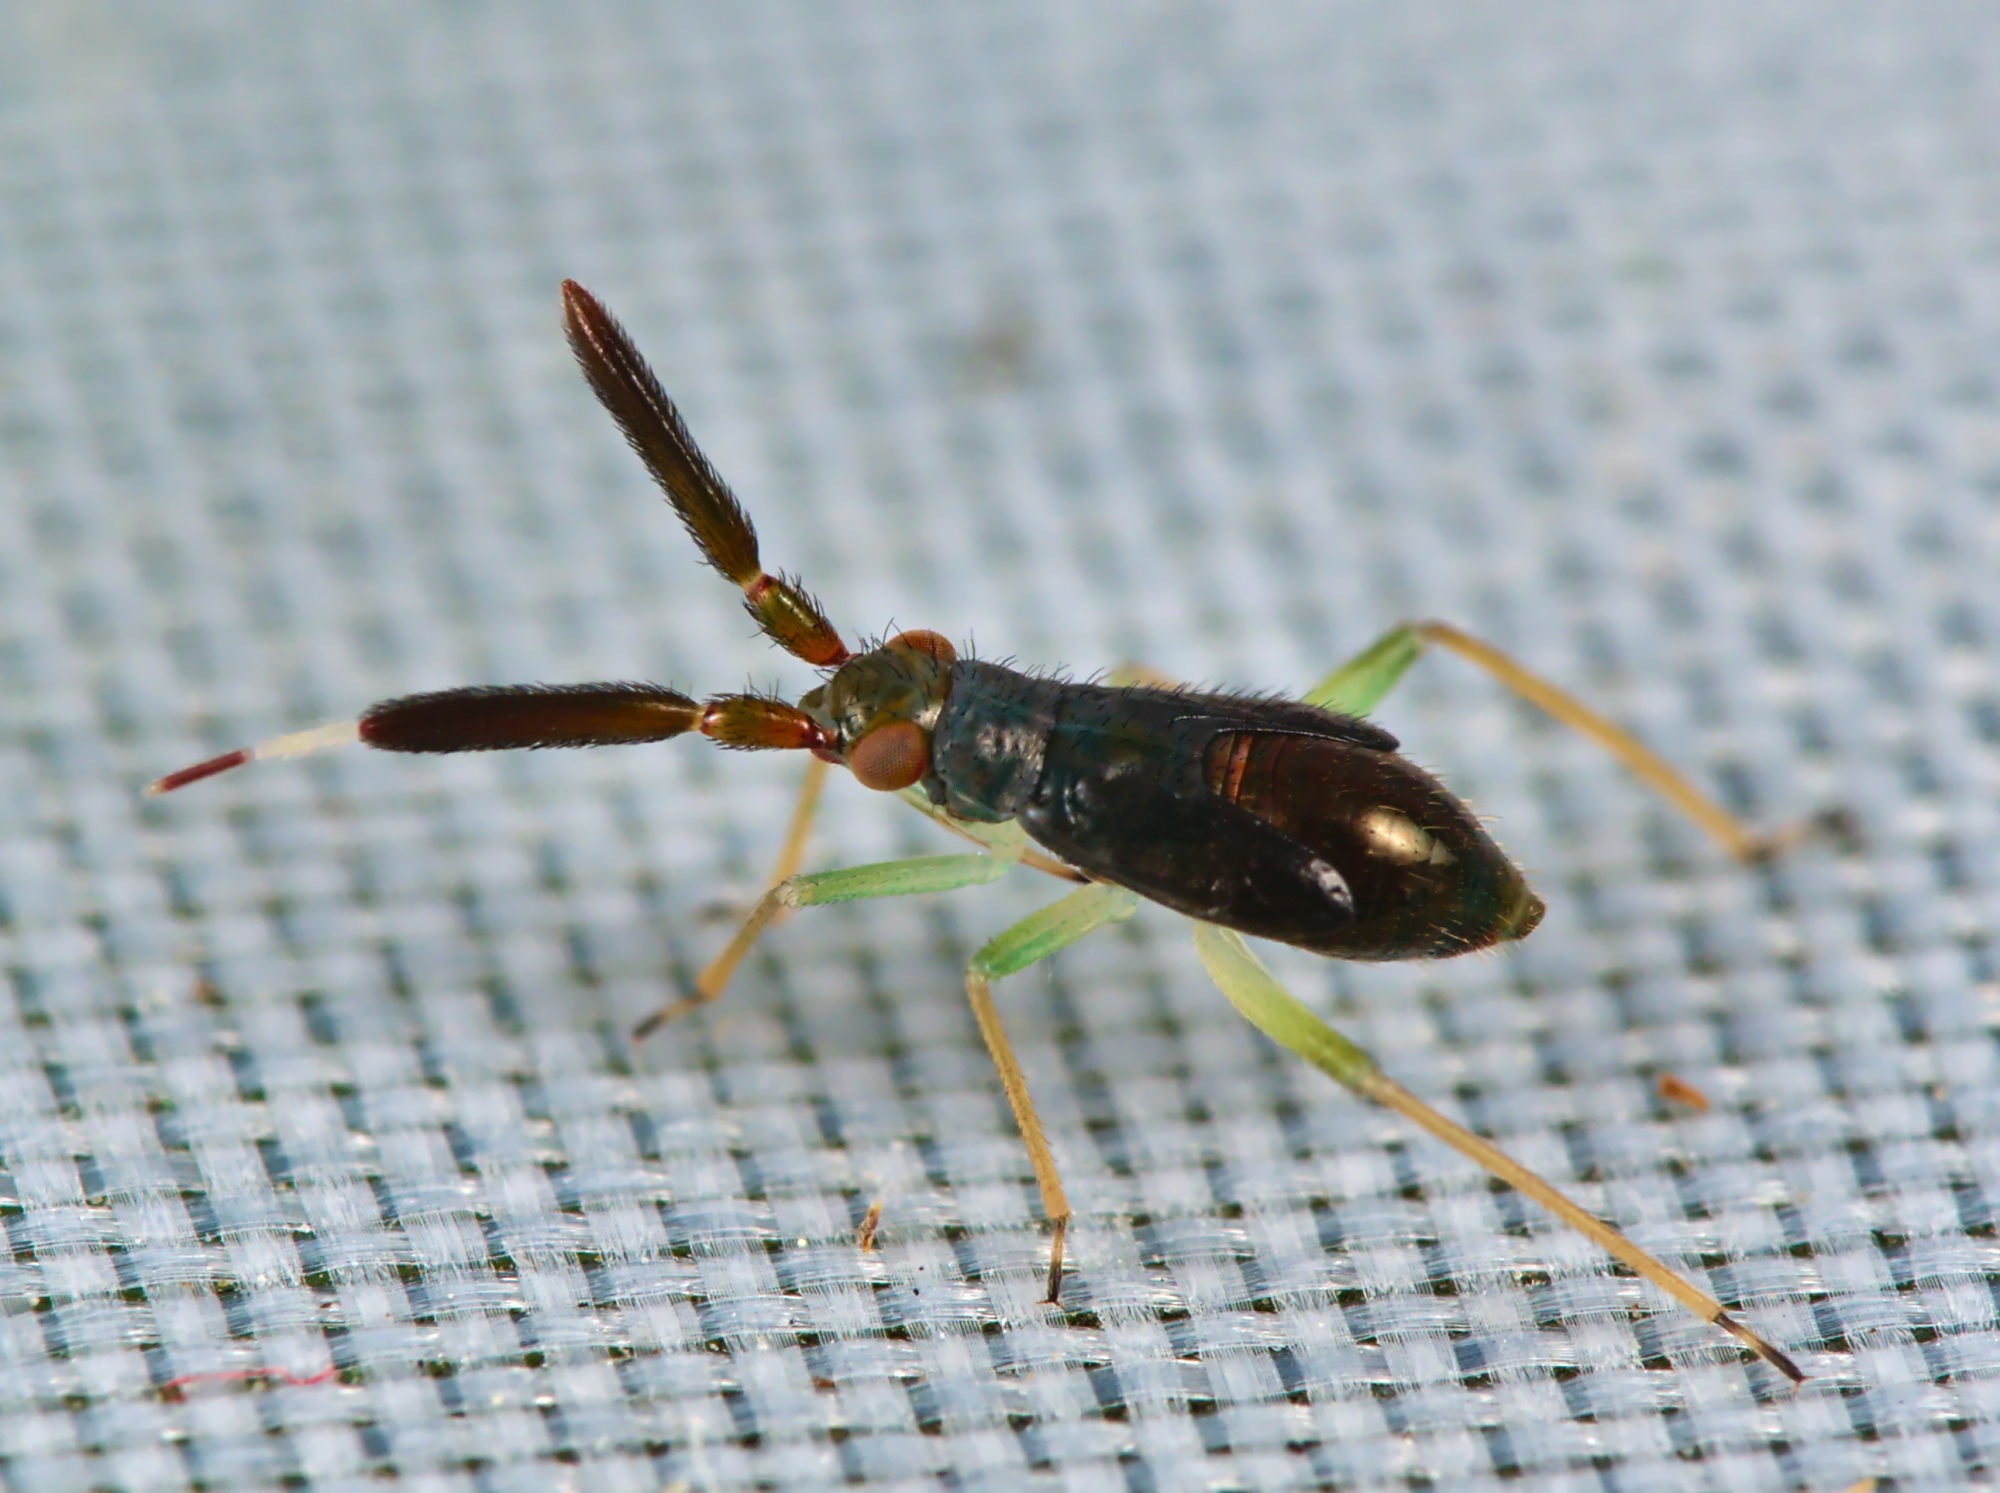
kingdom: Animalia
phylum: Arthropoda
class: Insecta
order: Hemiptera
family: Miridae
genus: Heterotoma
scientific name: Heterotoma planicornis
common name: Plant bug
